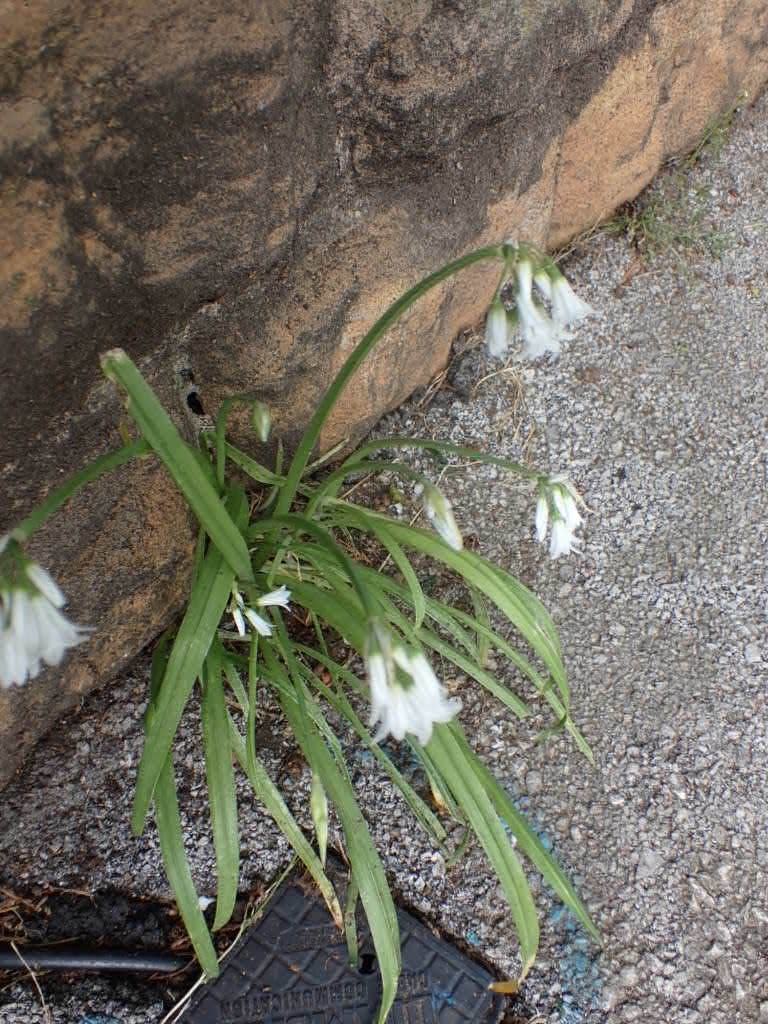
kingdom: Plantae
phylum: Tracheophyta
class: Liliopsida
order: Asparagales
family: Amaryllidaceae
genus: Allium
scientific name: Allium triquetrum
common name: Three-cornered garlic
